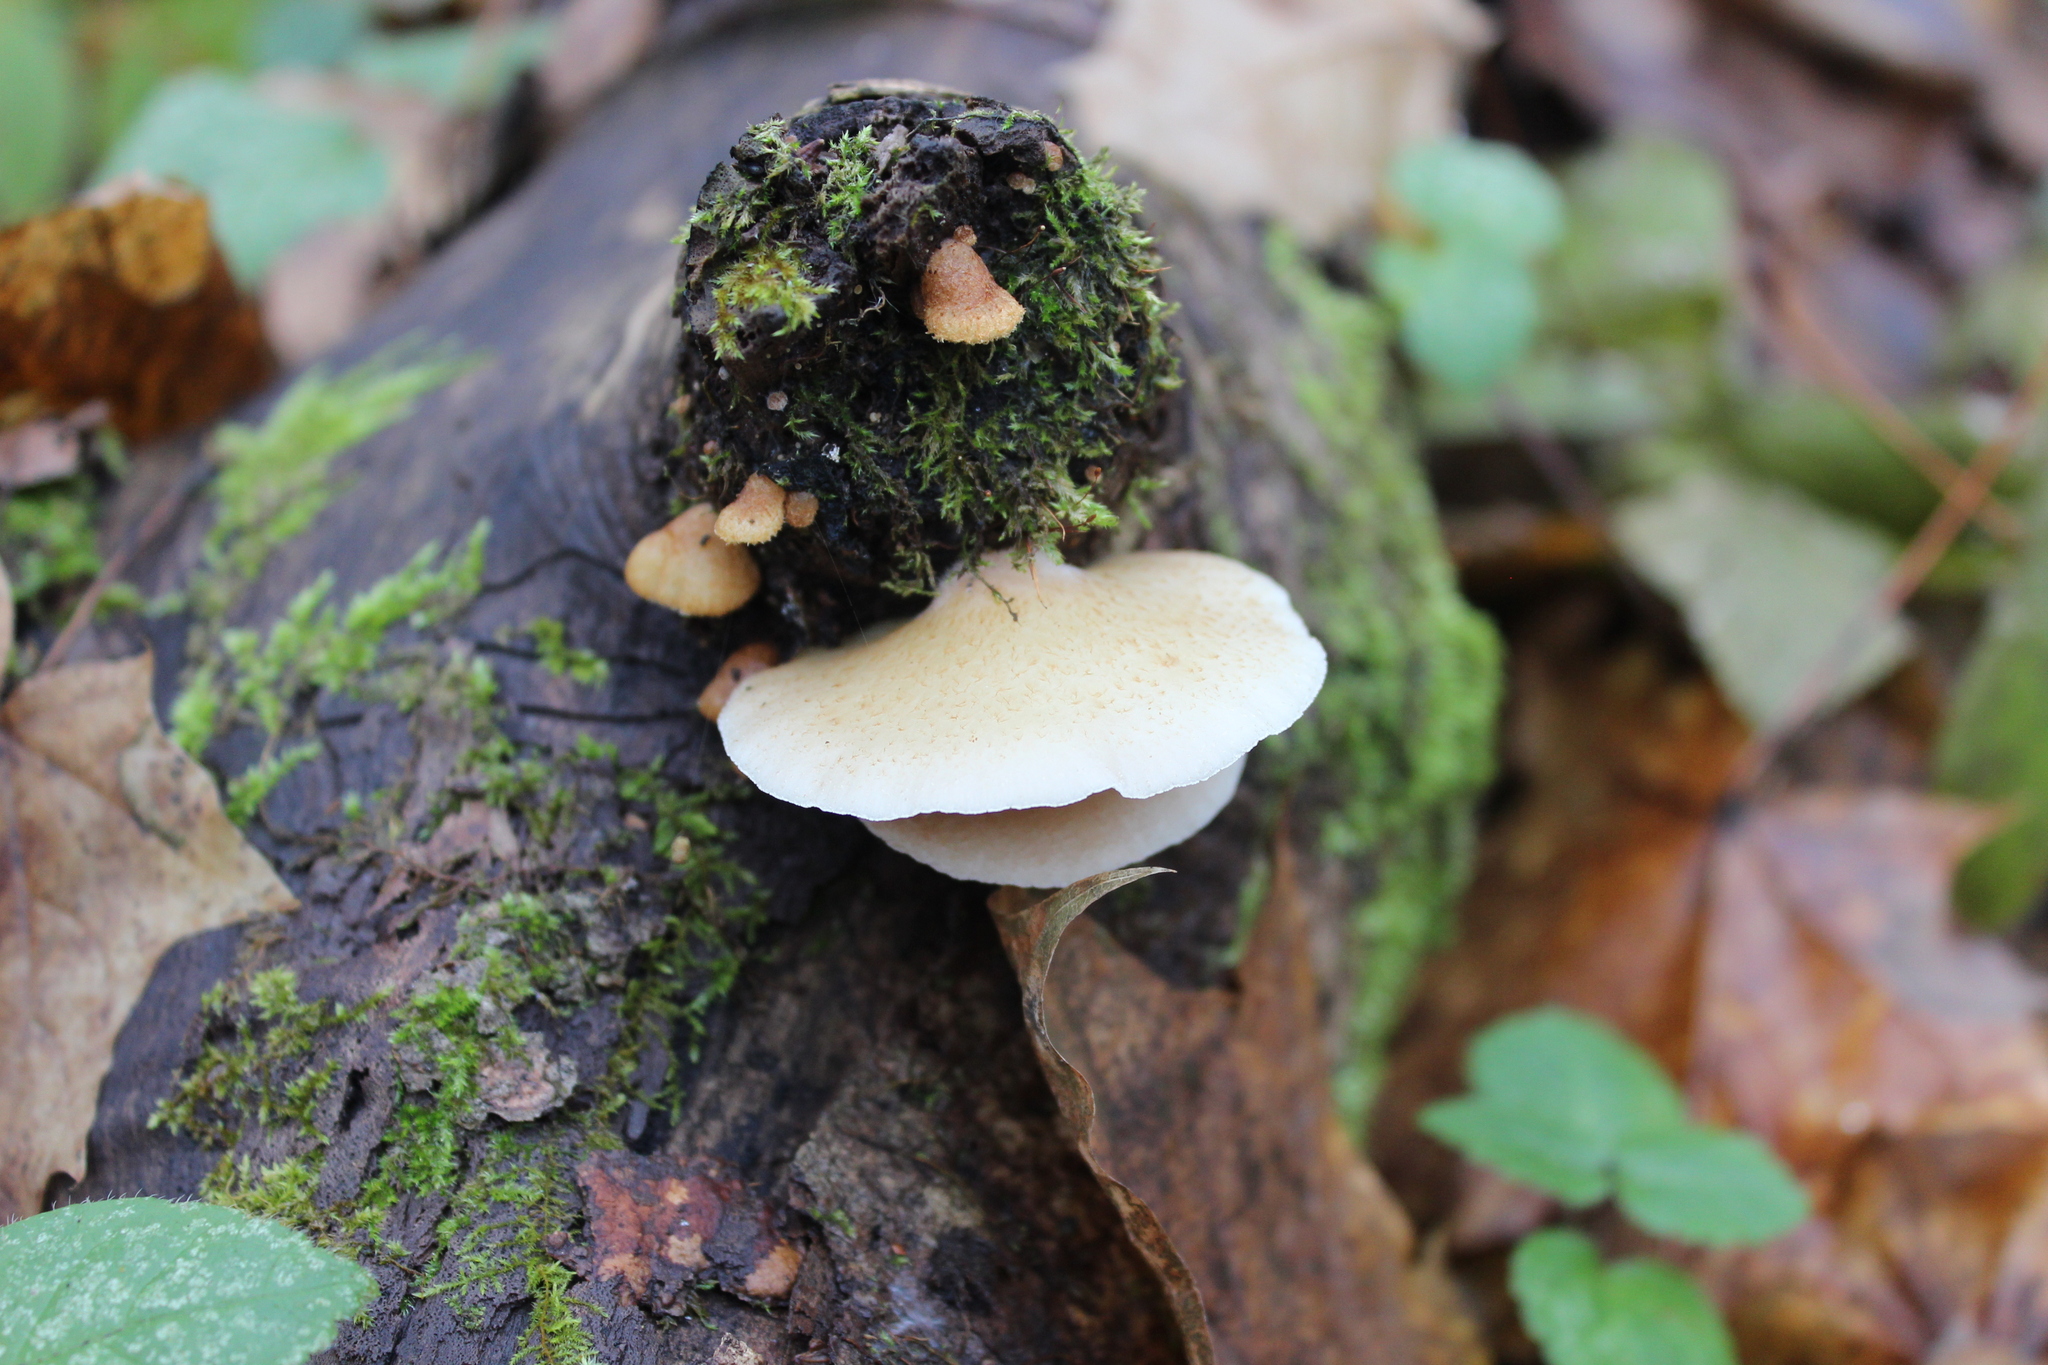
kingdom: Fungi
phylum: Basidiomycota
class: Agaricomycetes
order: Agaricales
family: Crepidotaceae
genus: Crepidotus
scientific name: Crepidotus calolepis
